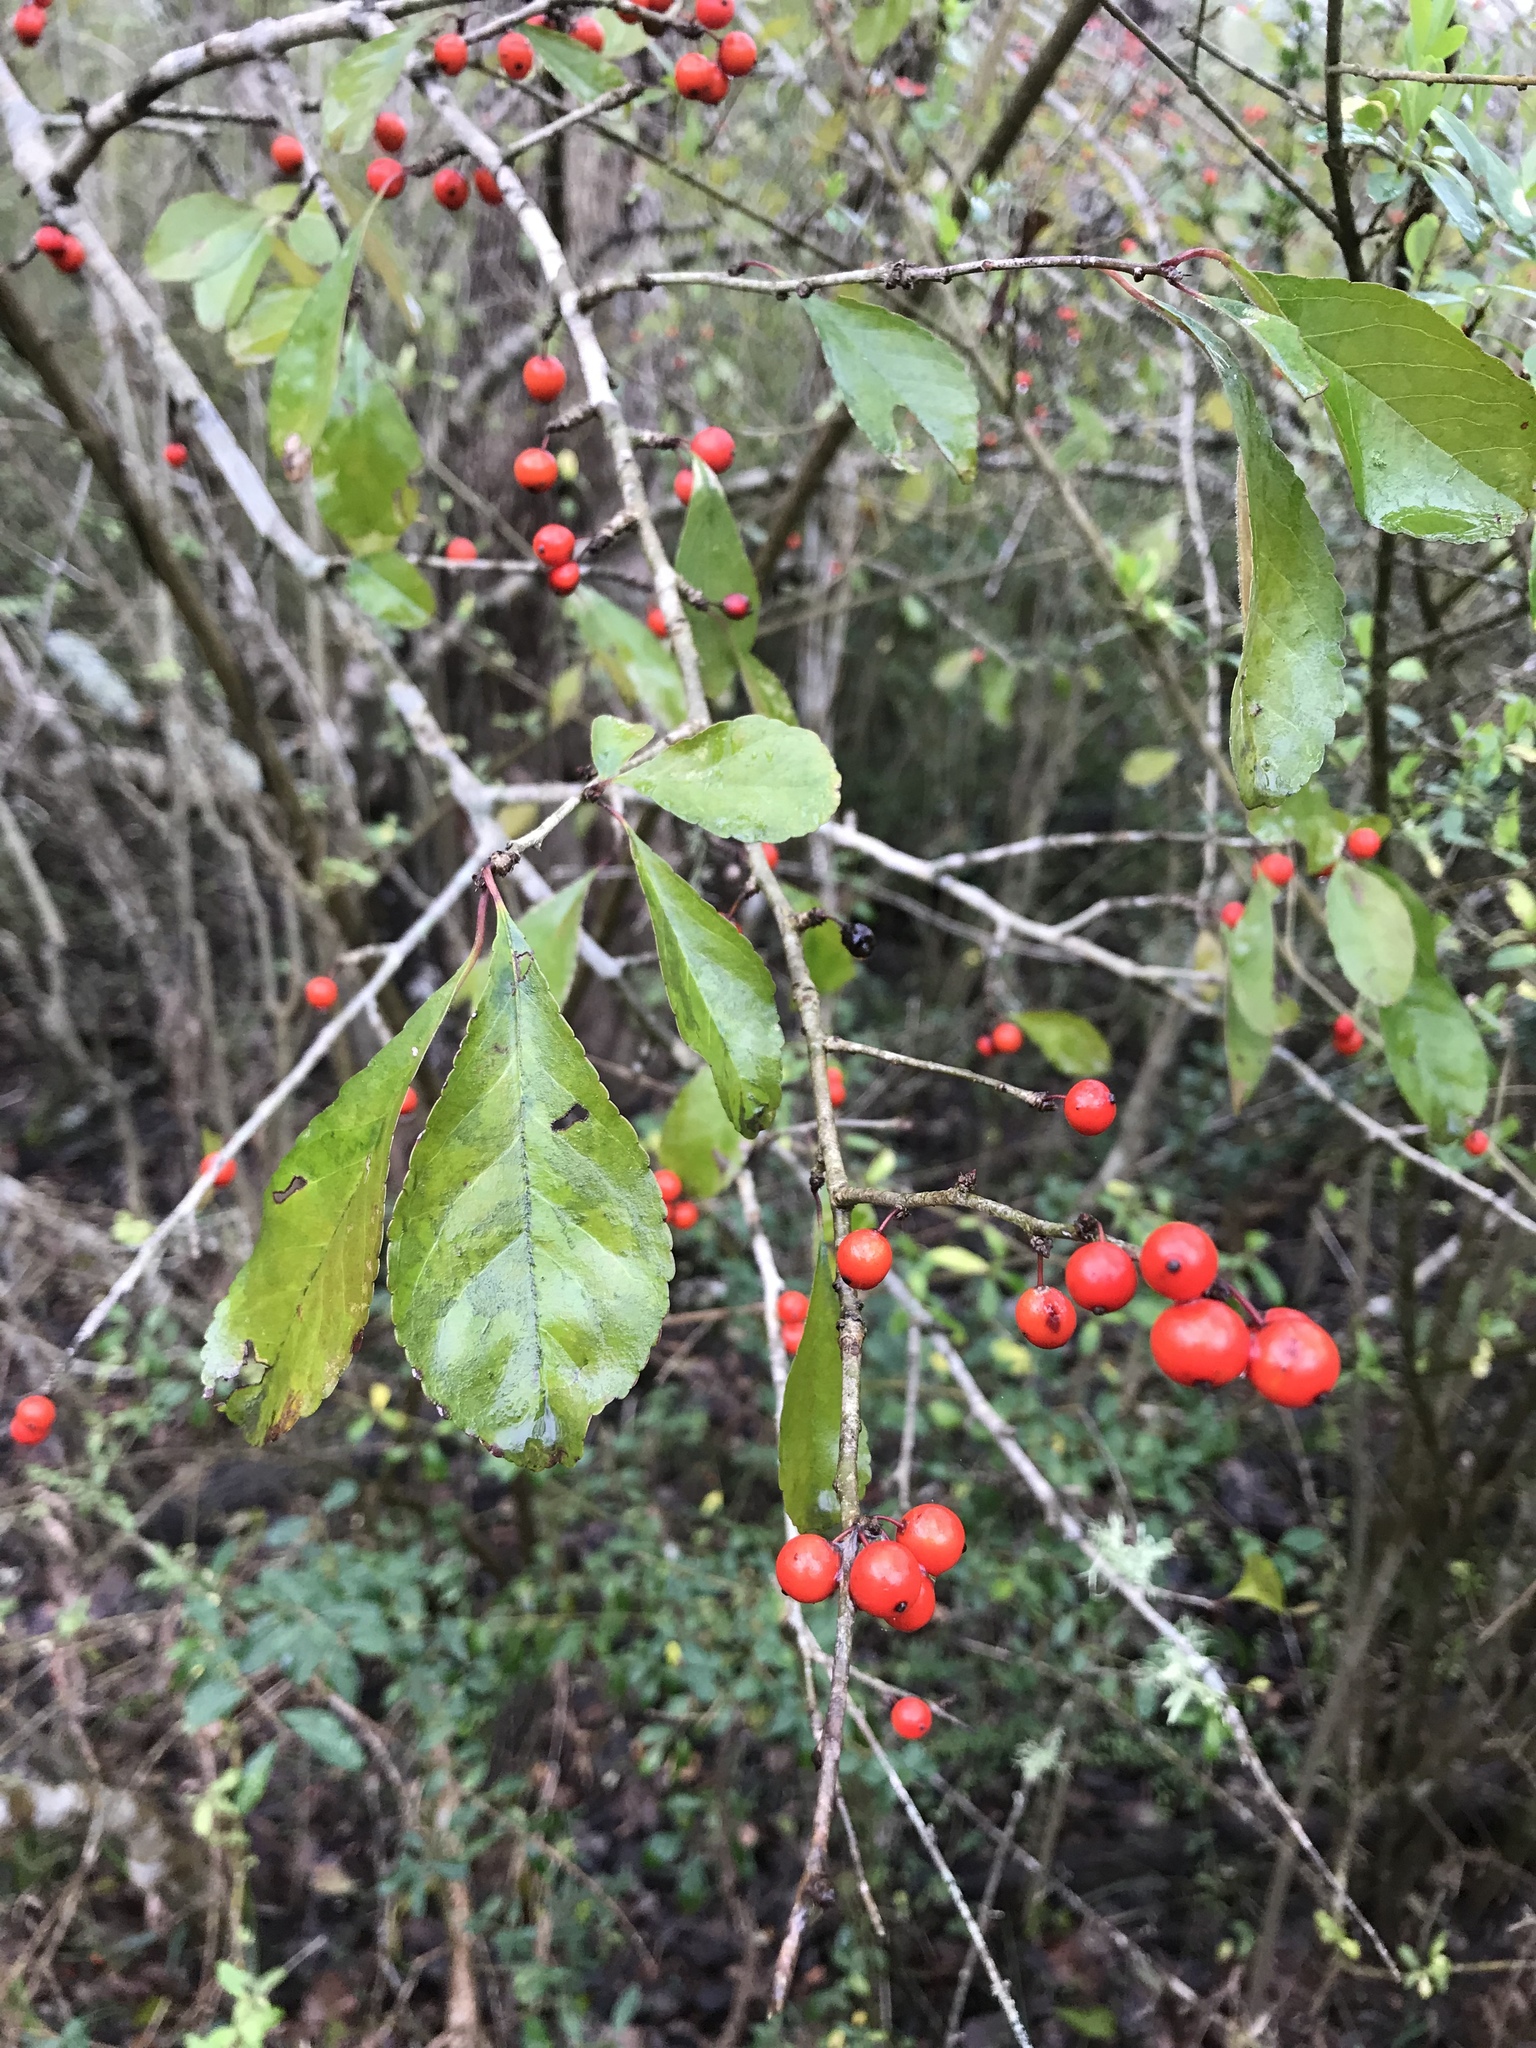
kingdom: Plantae
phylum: Tracheophyta
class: Magnoliopsida
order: Aquifoliales
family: Aquifoliaceae
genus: Ilex
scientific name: Ilex decidua
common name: Possum-haw
